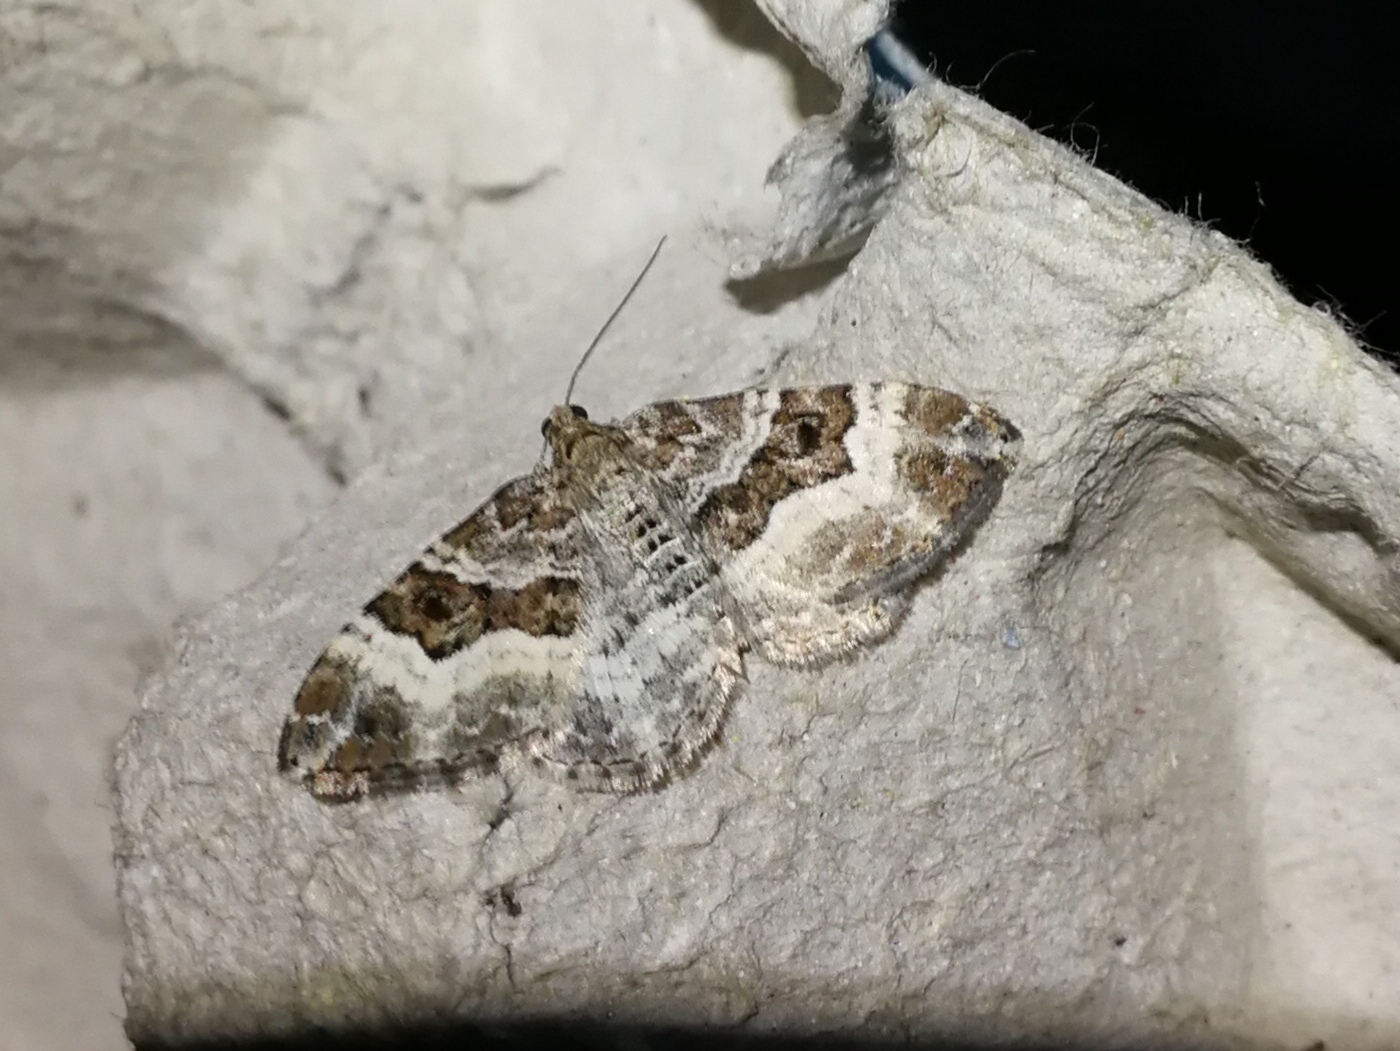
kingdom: Animalia
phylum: Arthropoda
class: Insecta
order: Lepidoptera
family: Geometridae
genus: Epirrhoe
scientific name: Epirrhoe alternata
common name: Common carpet
